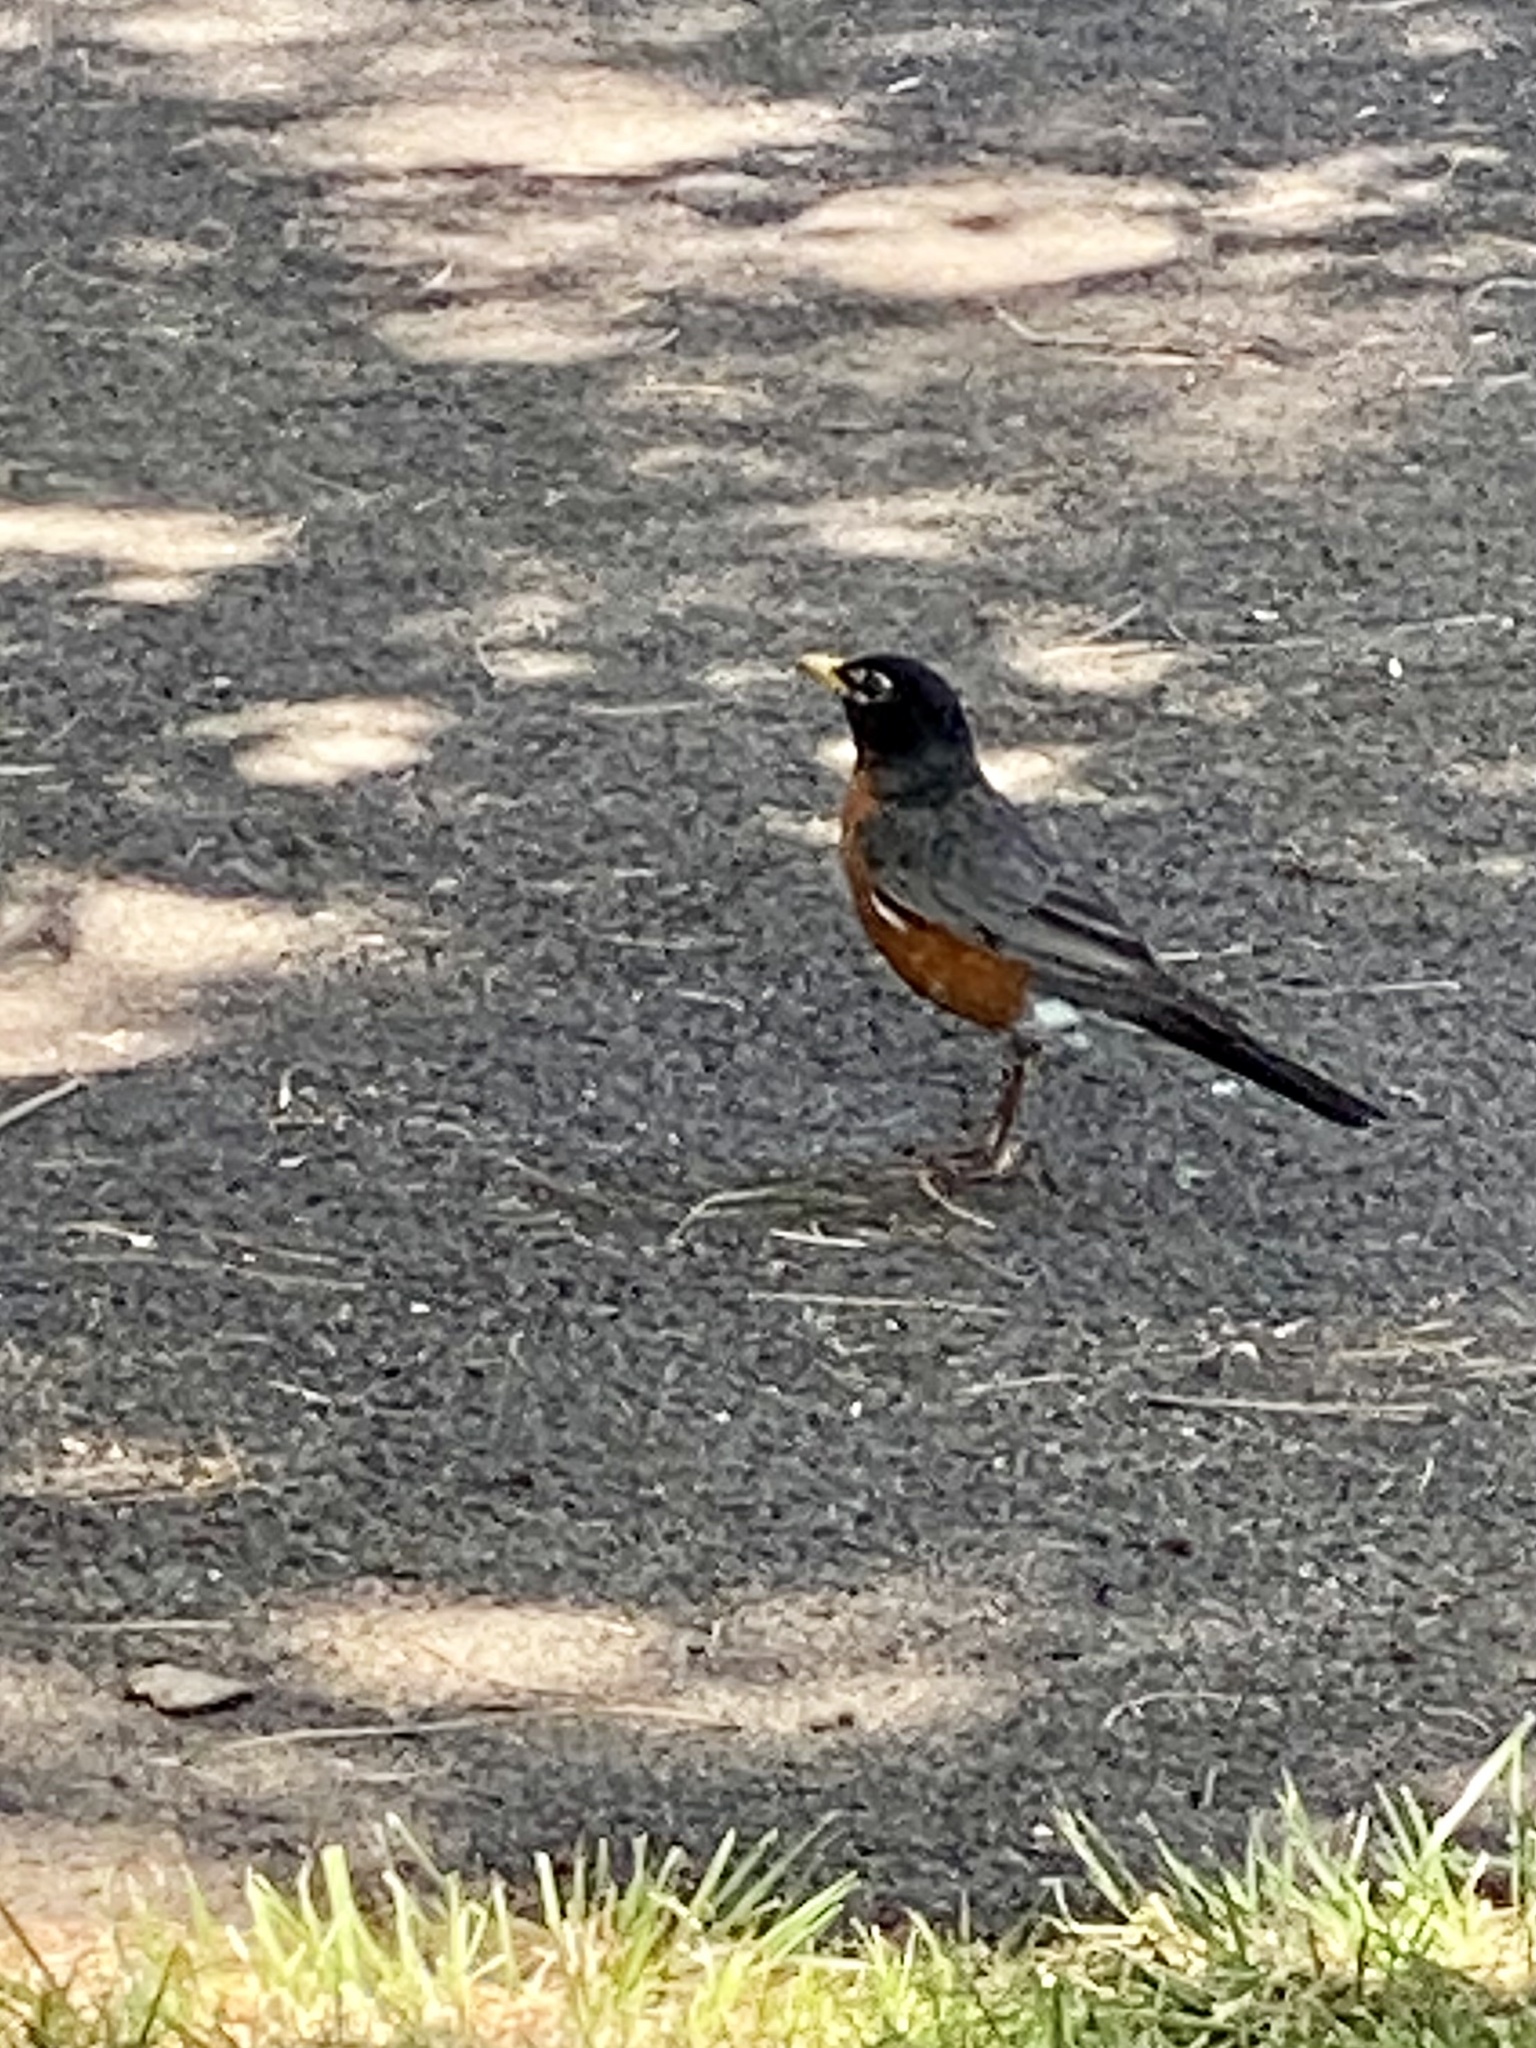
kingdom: Animalia
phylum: Chordata
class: Aves
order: Passeriformes
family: Turdidae
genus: Turdus
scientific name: Turdus migratorius
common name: American robin
